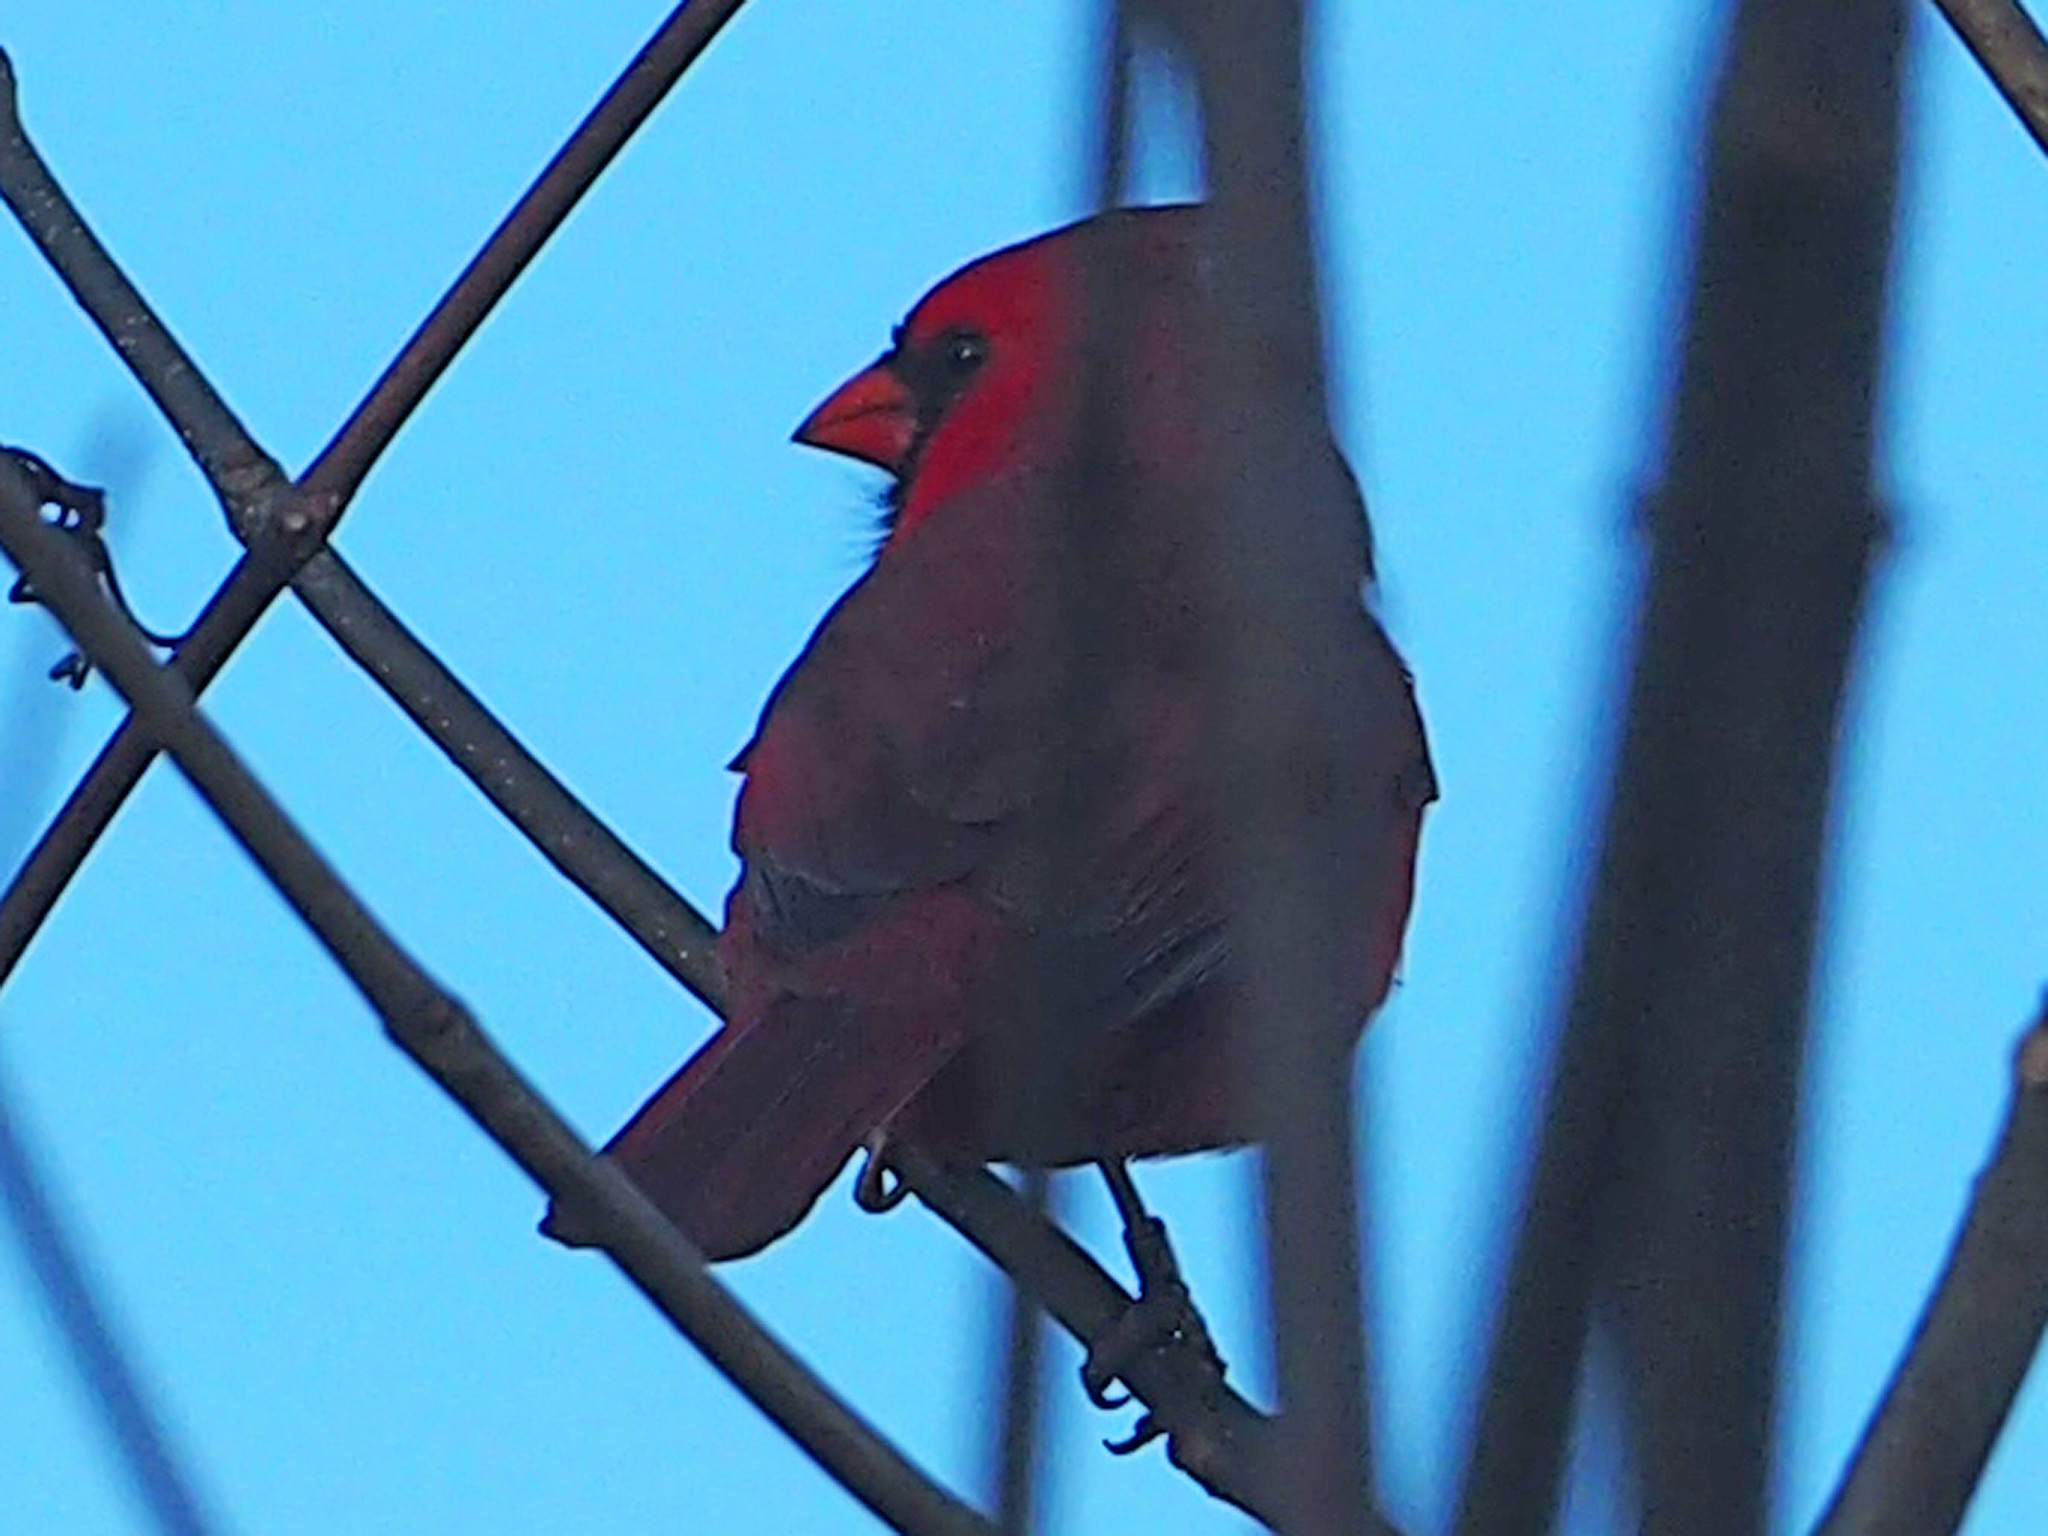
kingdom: Animalia
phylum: Chordata
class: Aves
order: Passeriformes
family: Cardinalidae
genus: Cardinalis
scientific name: Cardinalis cardinalis
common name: Northern cardinal
